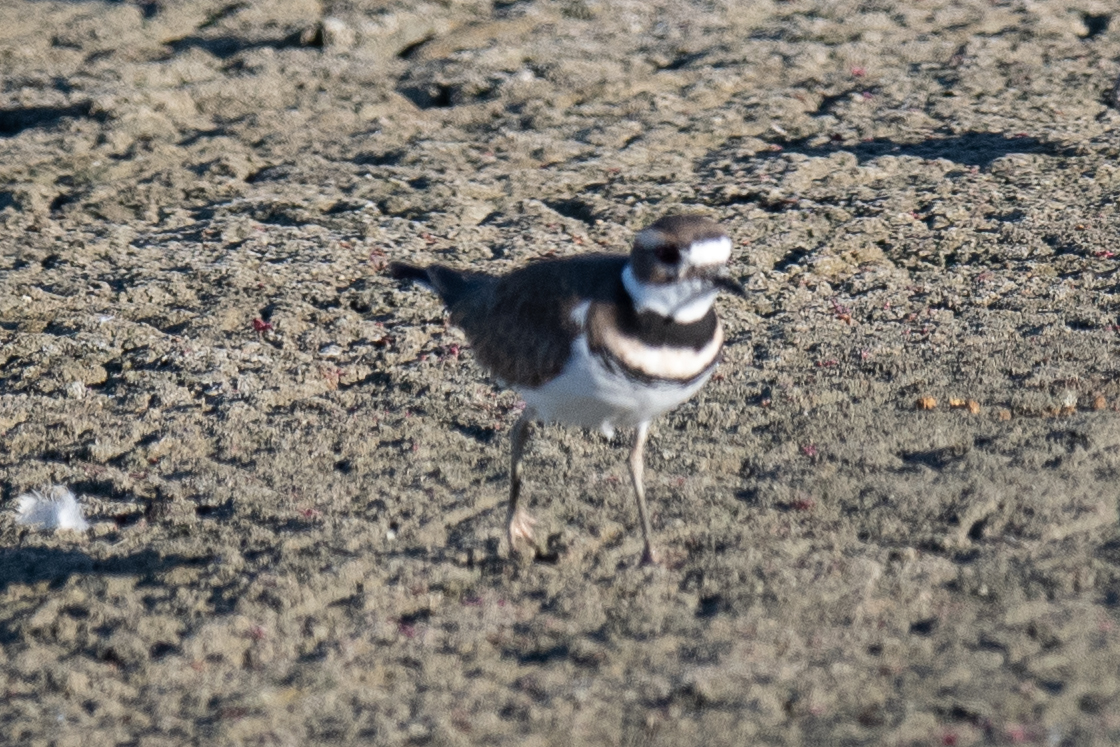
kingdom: Animalia
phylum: Chordata
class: Aves
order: Charadriiformes
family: Charadriidae
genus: Charadrius
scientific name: Charadrius vociferus
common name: Killdeer
